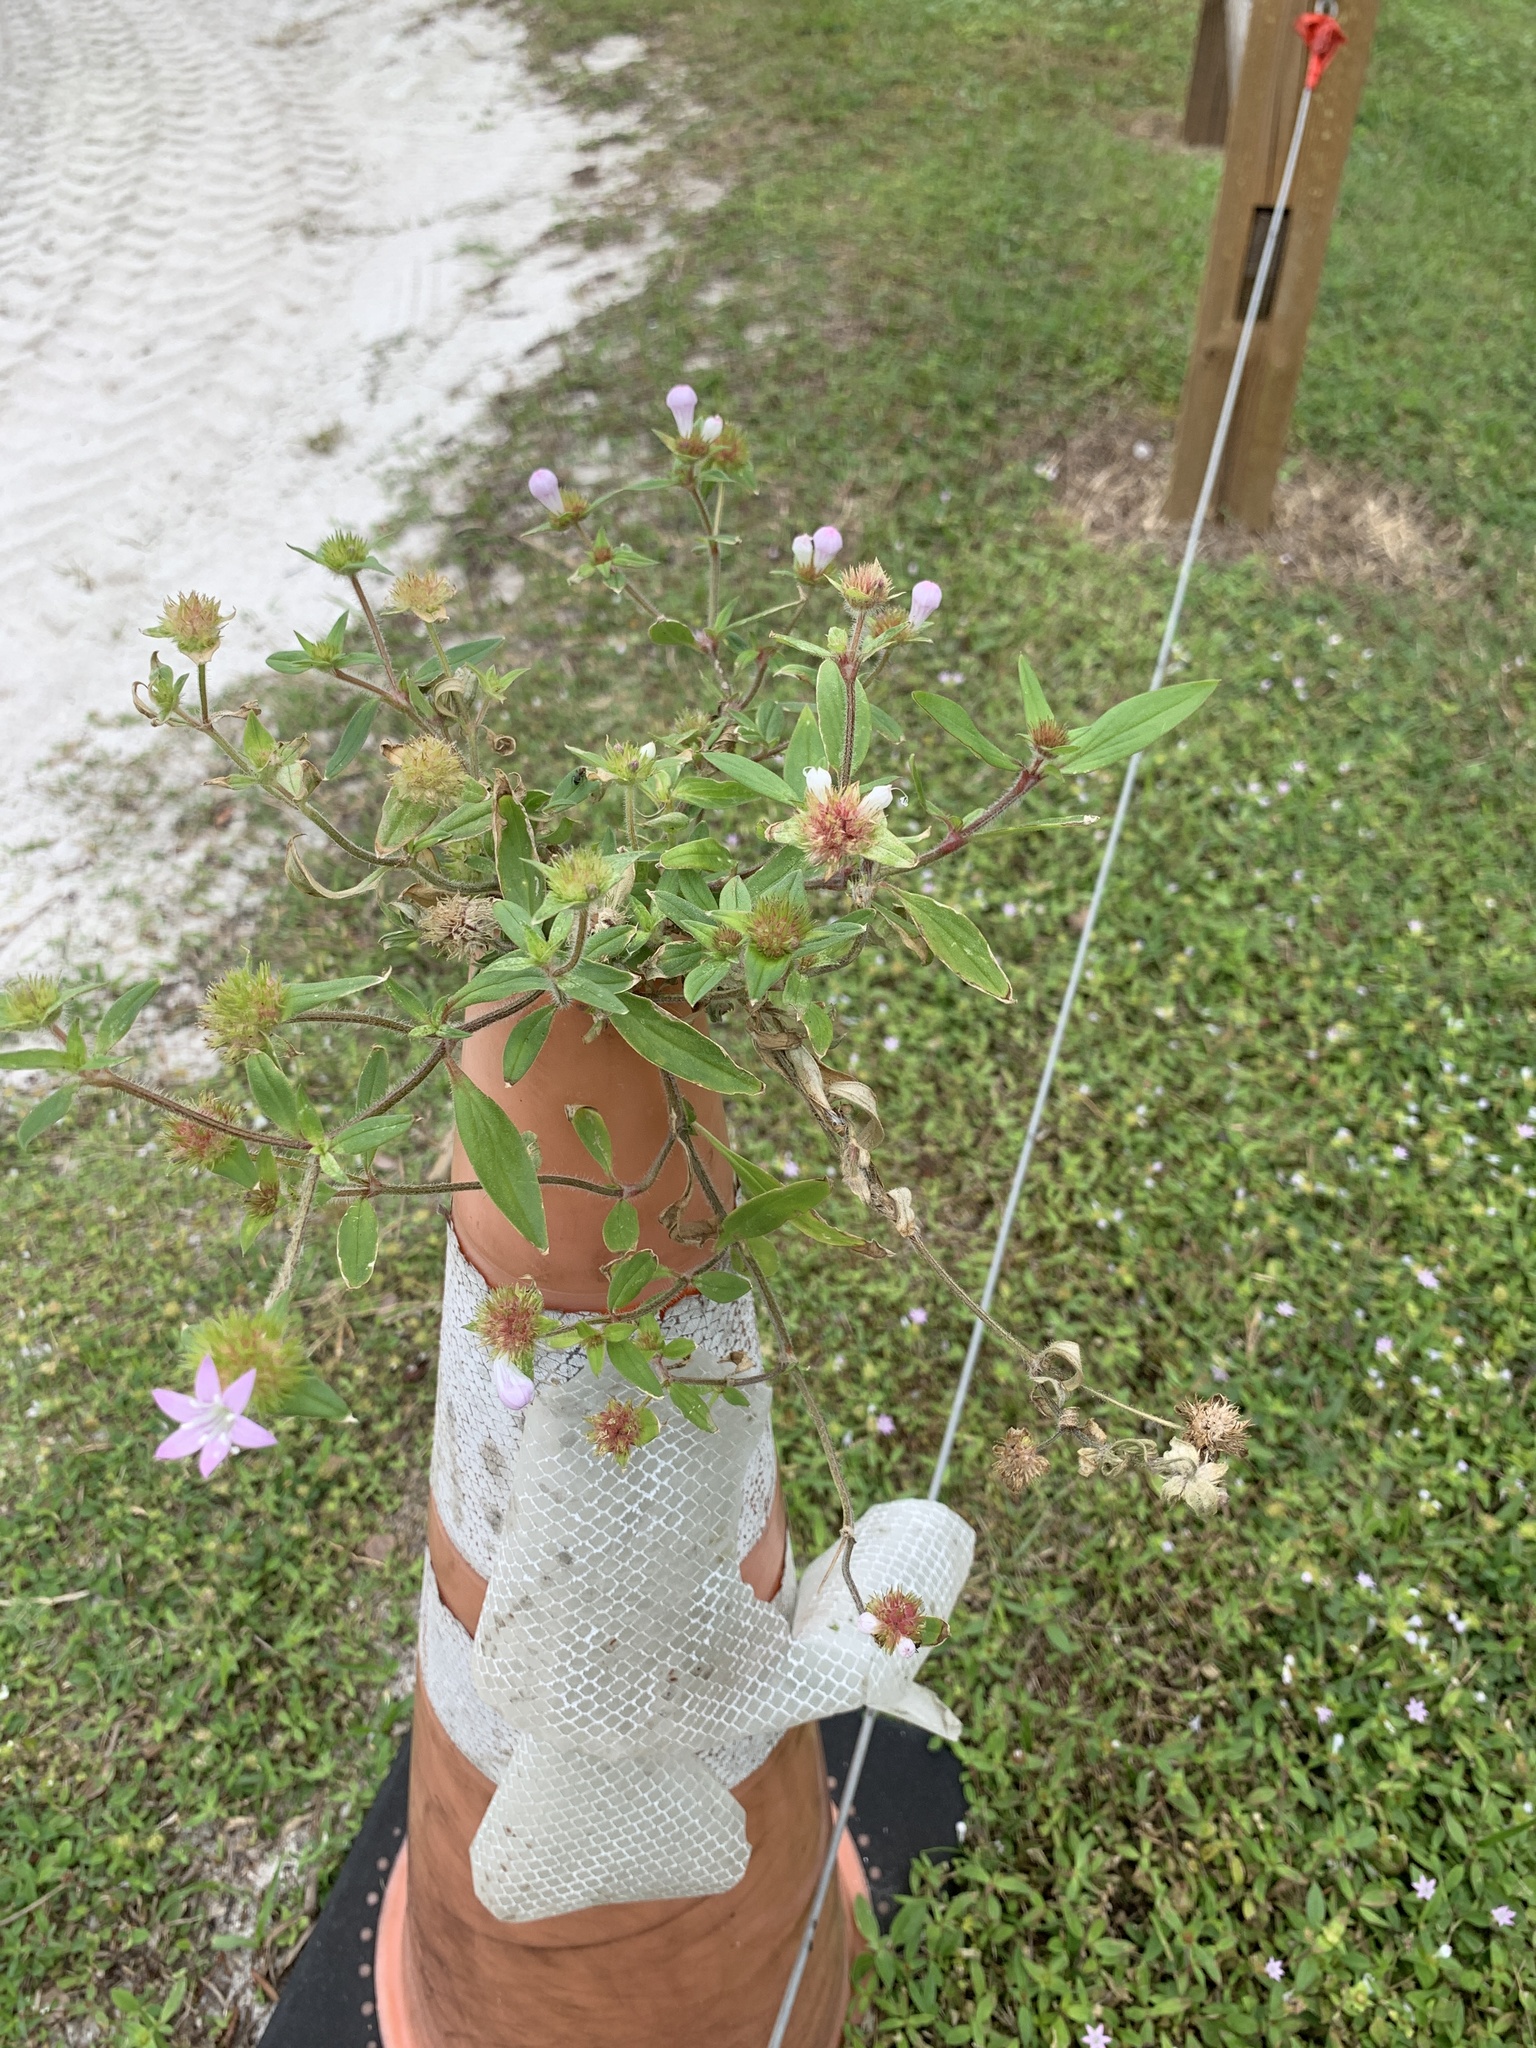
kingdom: Plantae
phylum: Tracheophyta
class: Magnoliopsida
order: Gentianales
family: Rubiaceae
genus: Richardia
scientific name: Richardia grandiflora
